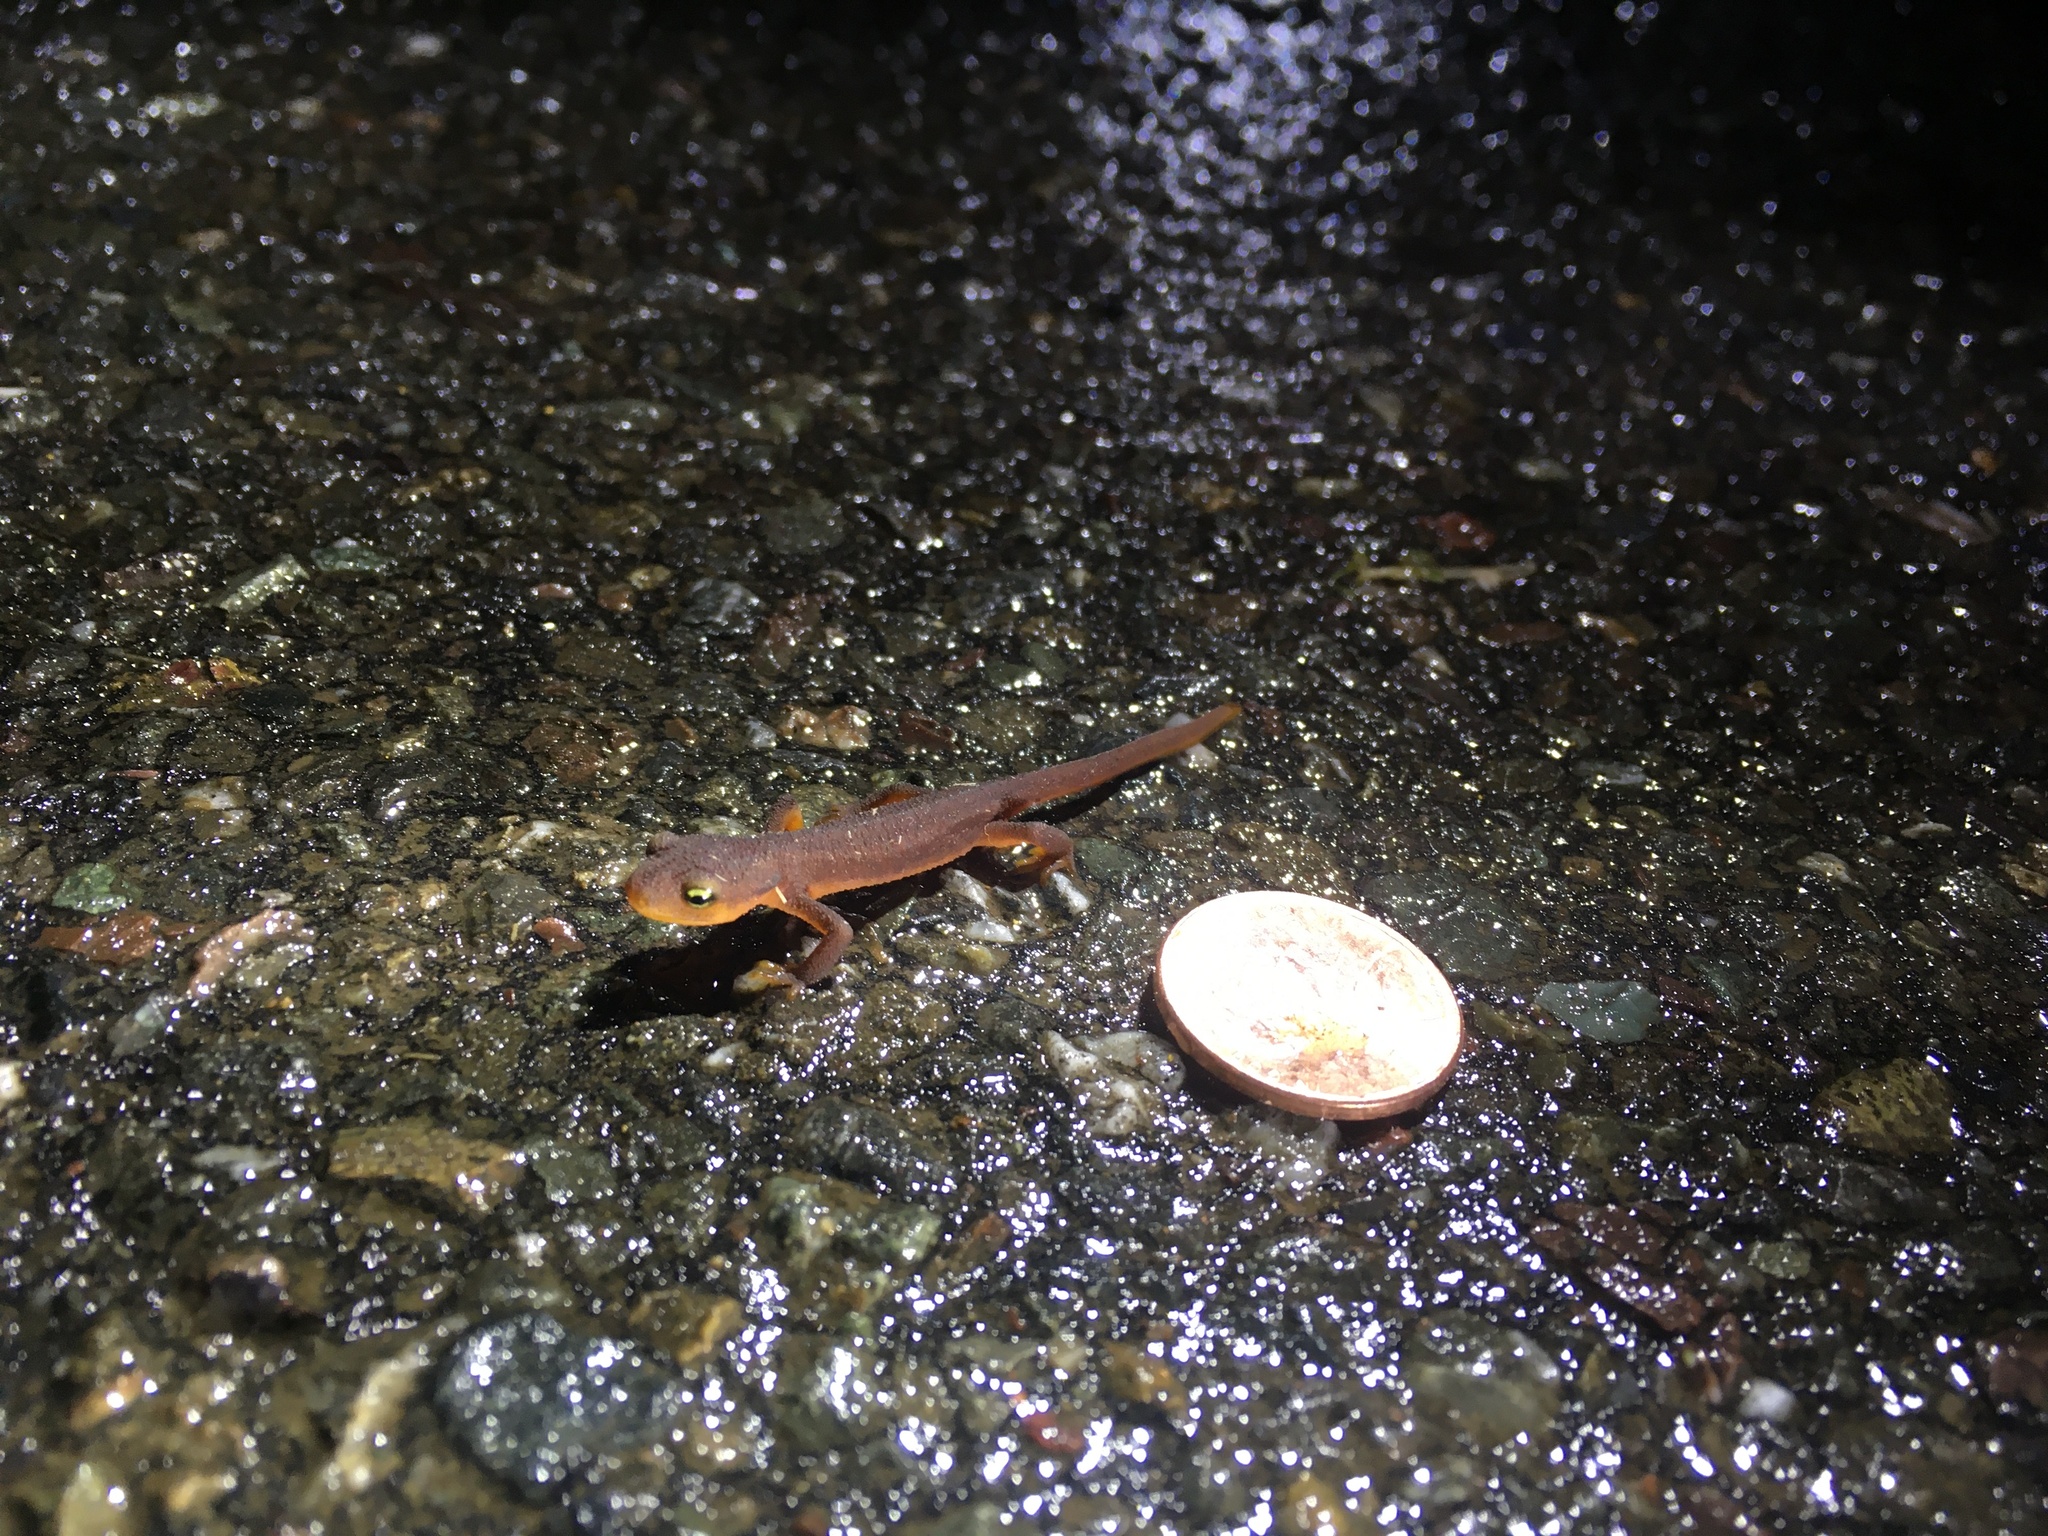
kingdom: Animalia
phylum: Chordata
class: Amphibia
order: Caudata
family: Salamandridae
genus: Taricha
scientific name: Taricha torosa
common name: California newt
